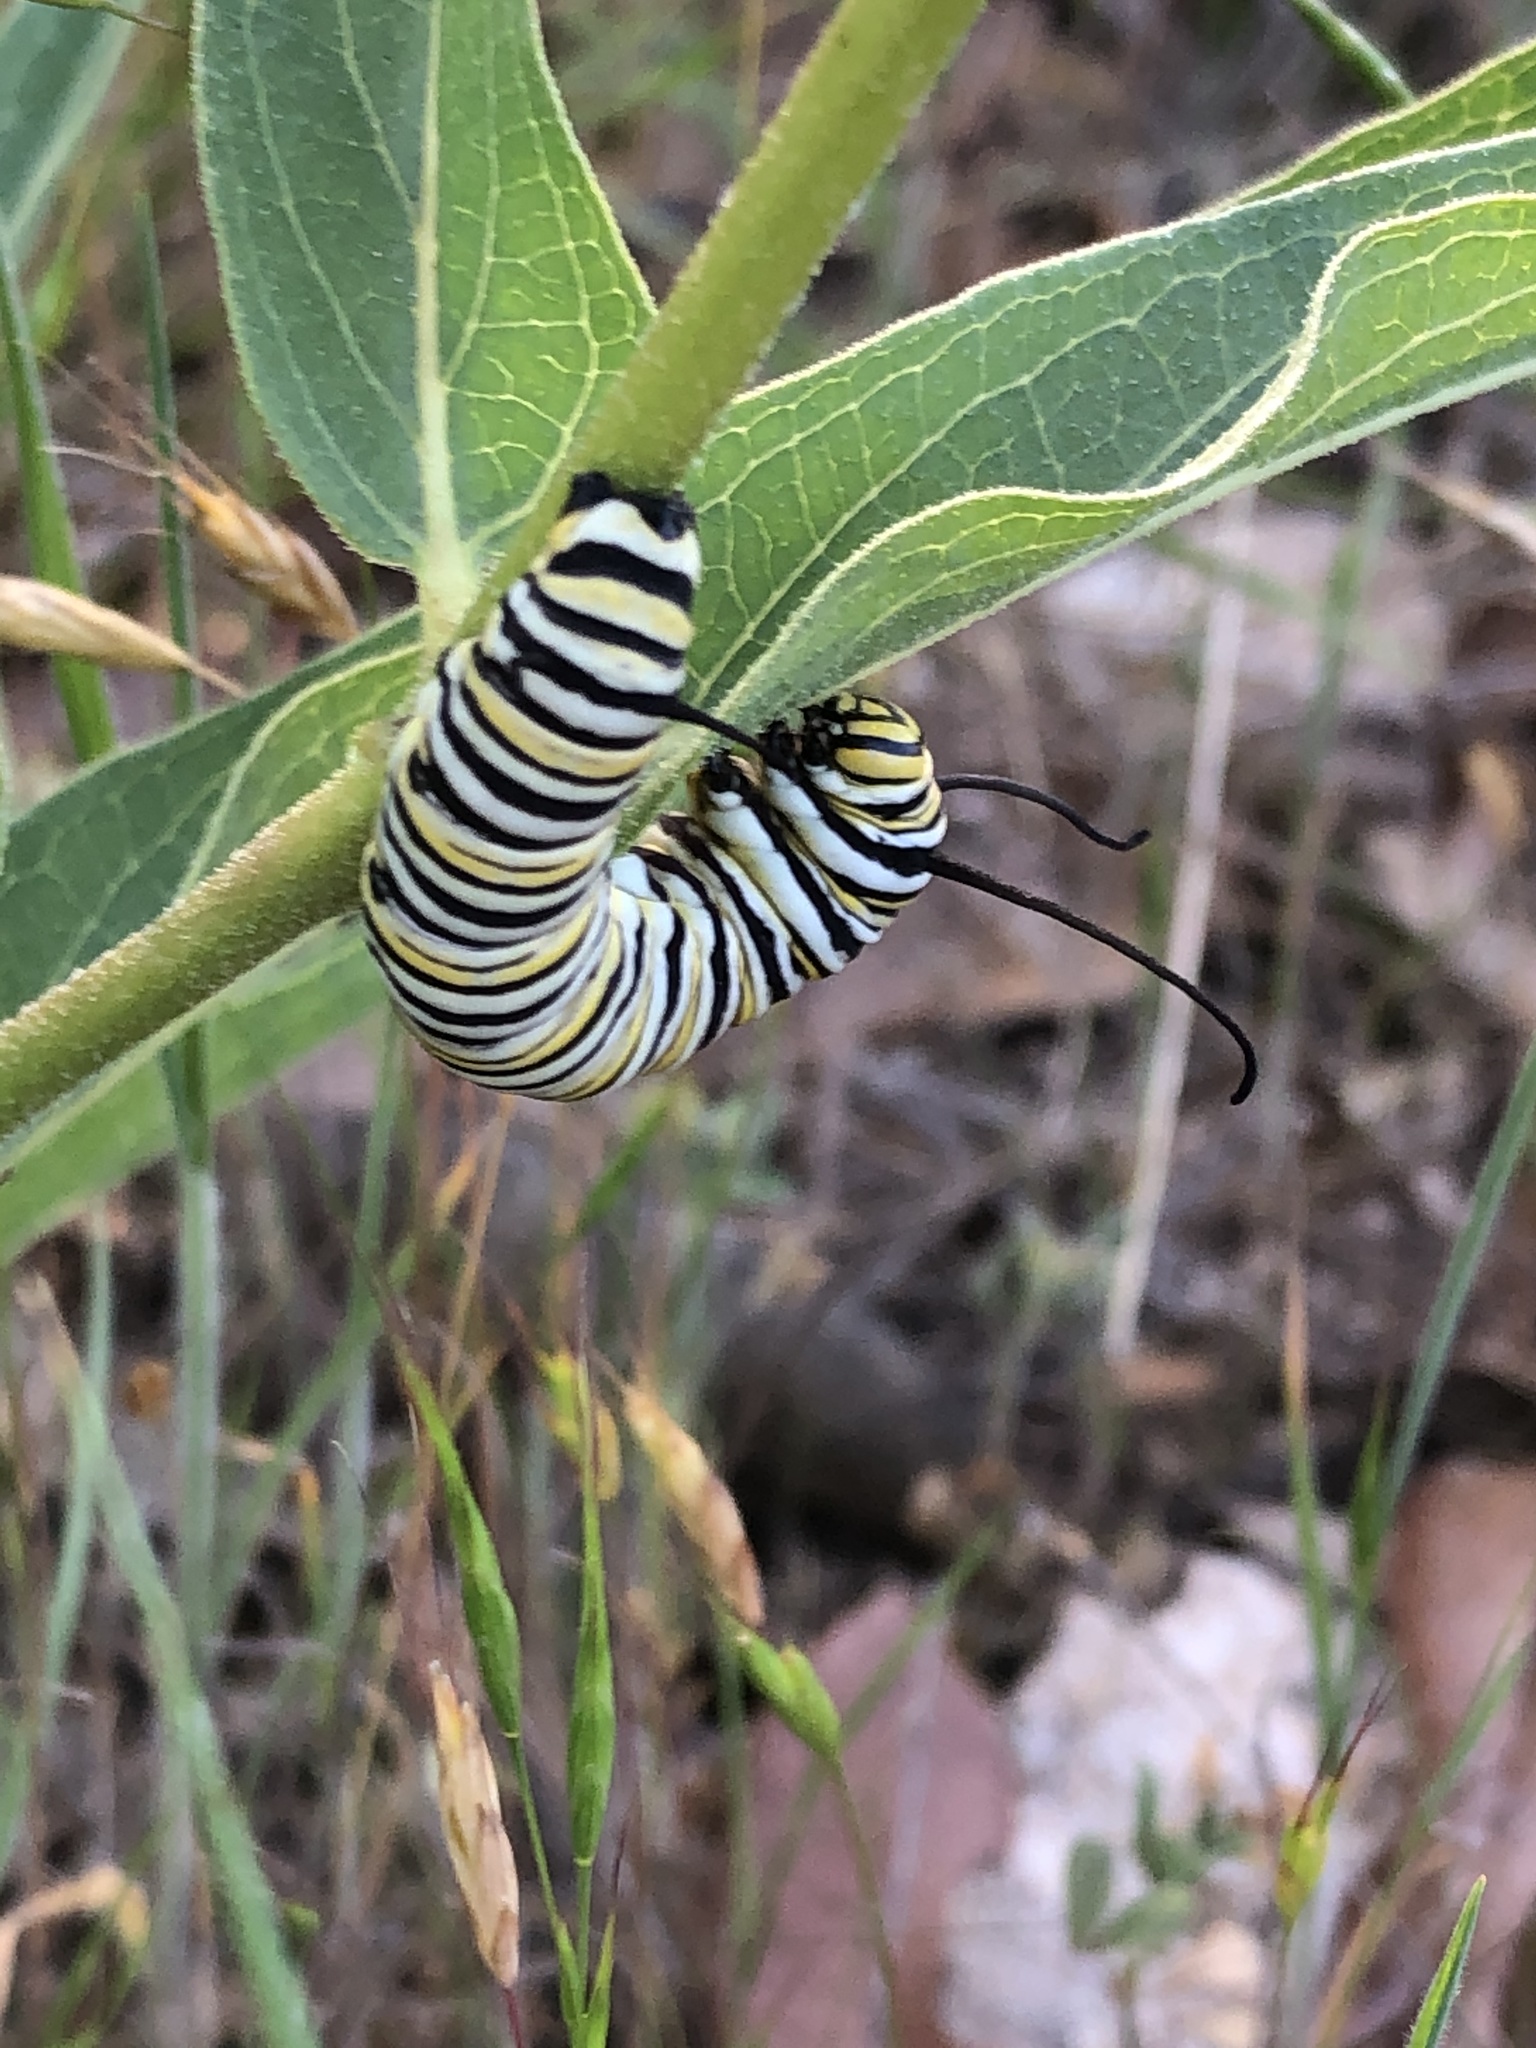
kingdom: Animalia
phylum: Arthropoda
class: Insecta
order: Lepidoptera
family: Nymphalidae
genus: Danaus
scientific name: Danaus plexippus
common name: Monarch
